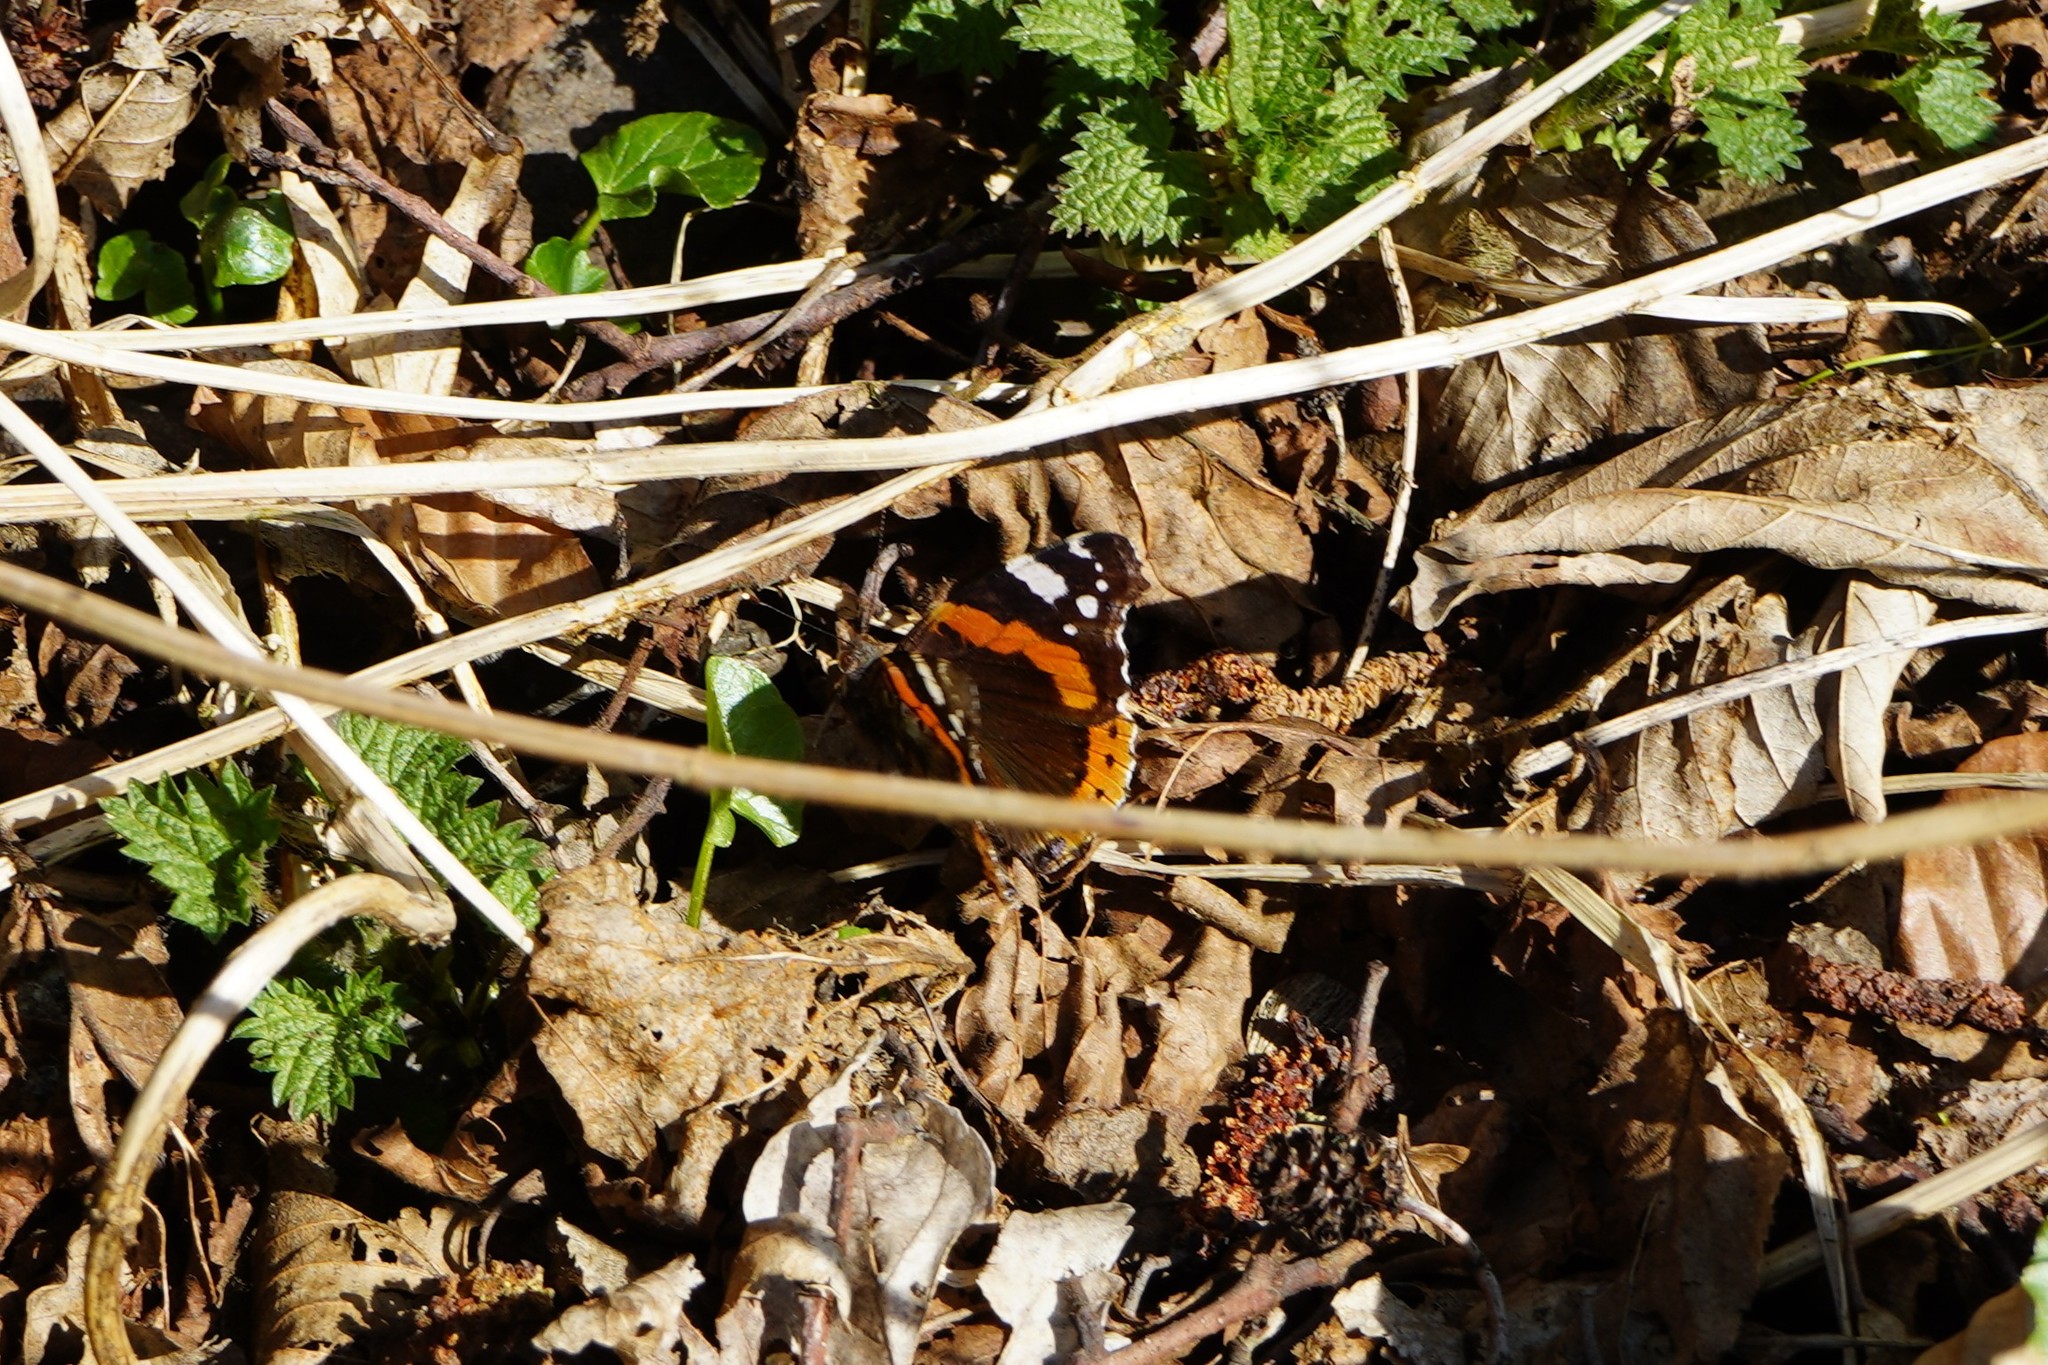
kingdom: Animalia
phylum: Arthropoda
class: Insecta
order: Lepidoptera
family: Nymphalidae
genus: Vanessa
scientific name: Vanessa atalanta
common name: Red admiral
